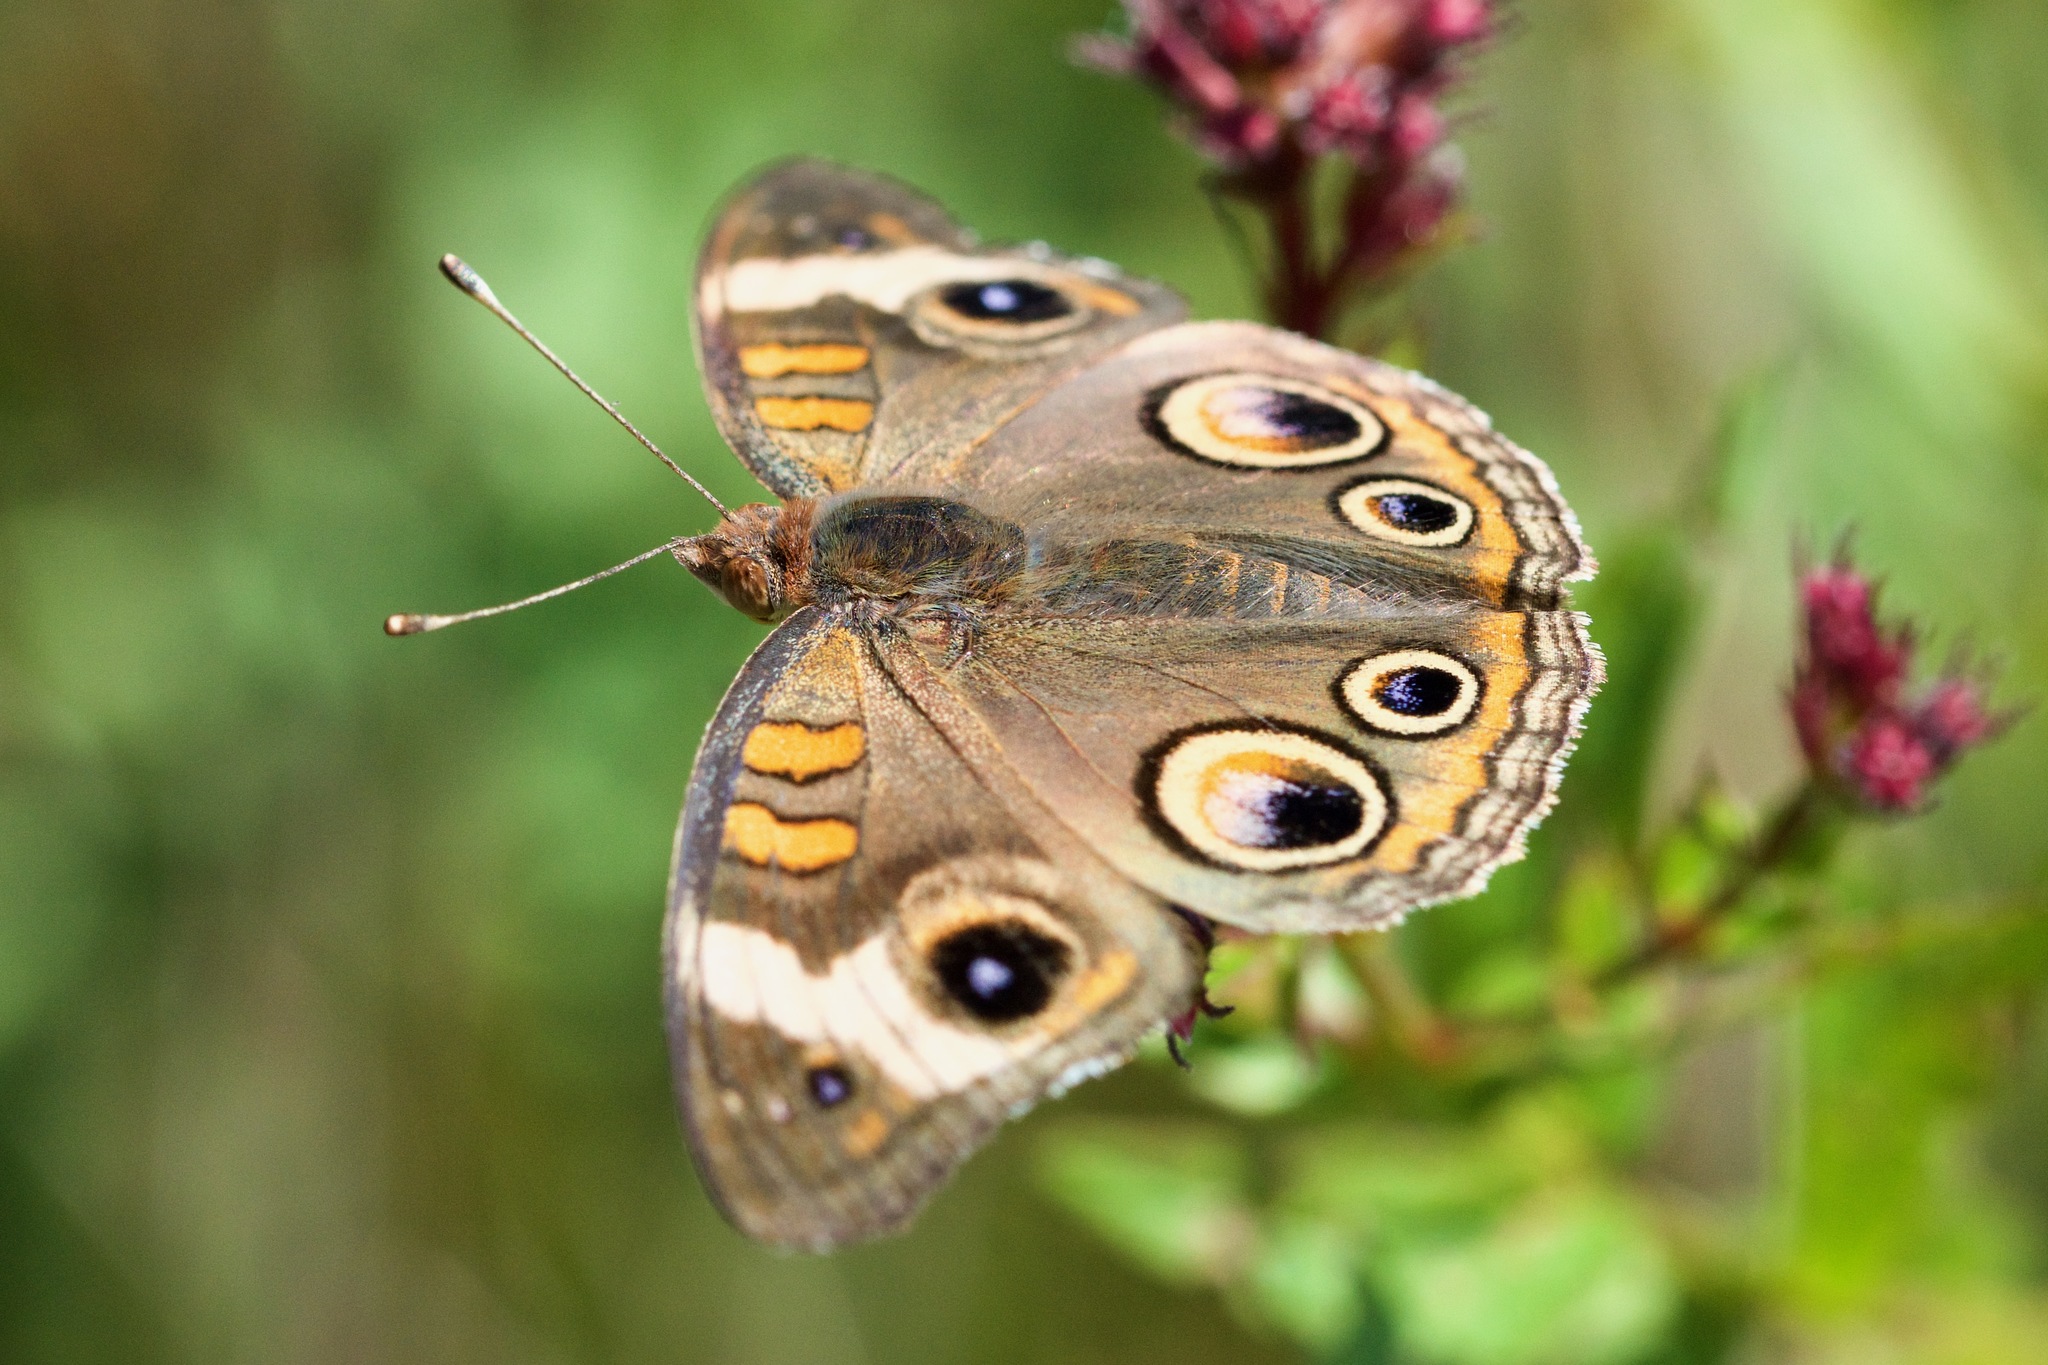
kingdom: Animalia
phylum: Arthropoda
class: Insecta
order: Lepidoptera
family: Nymphalidae
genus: Junonia
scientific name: Junonia coenia
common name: Common buckeye
